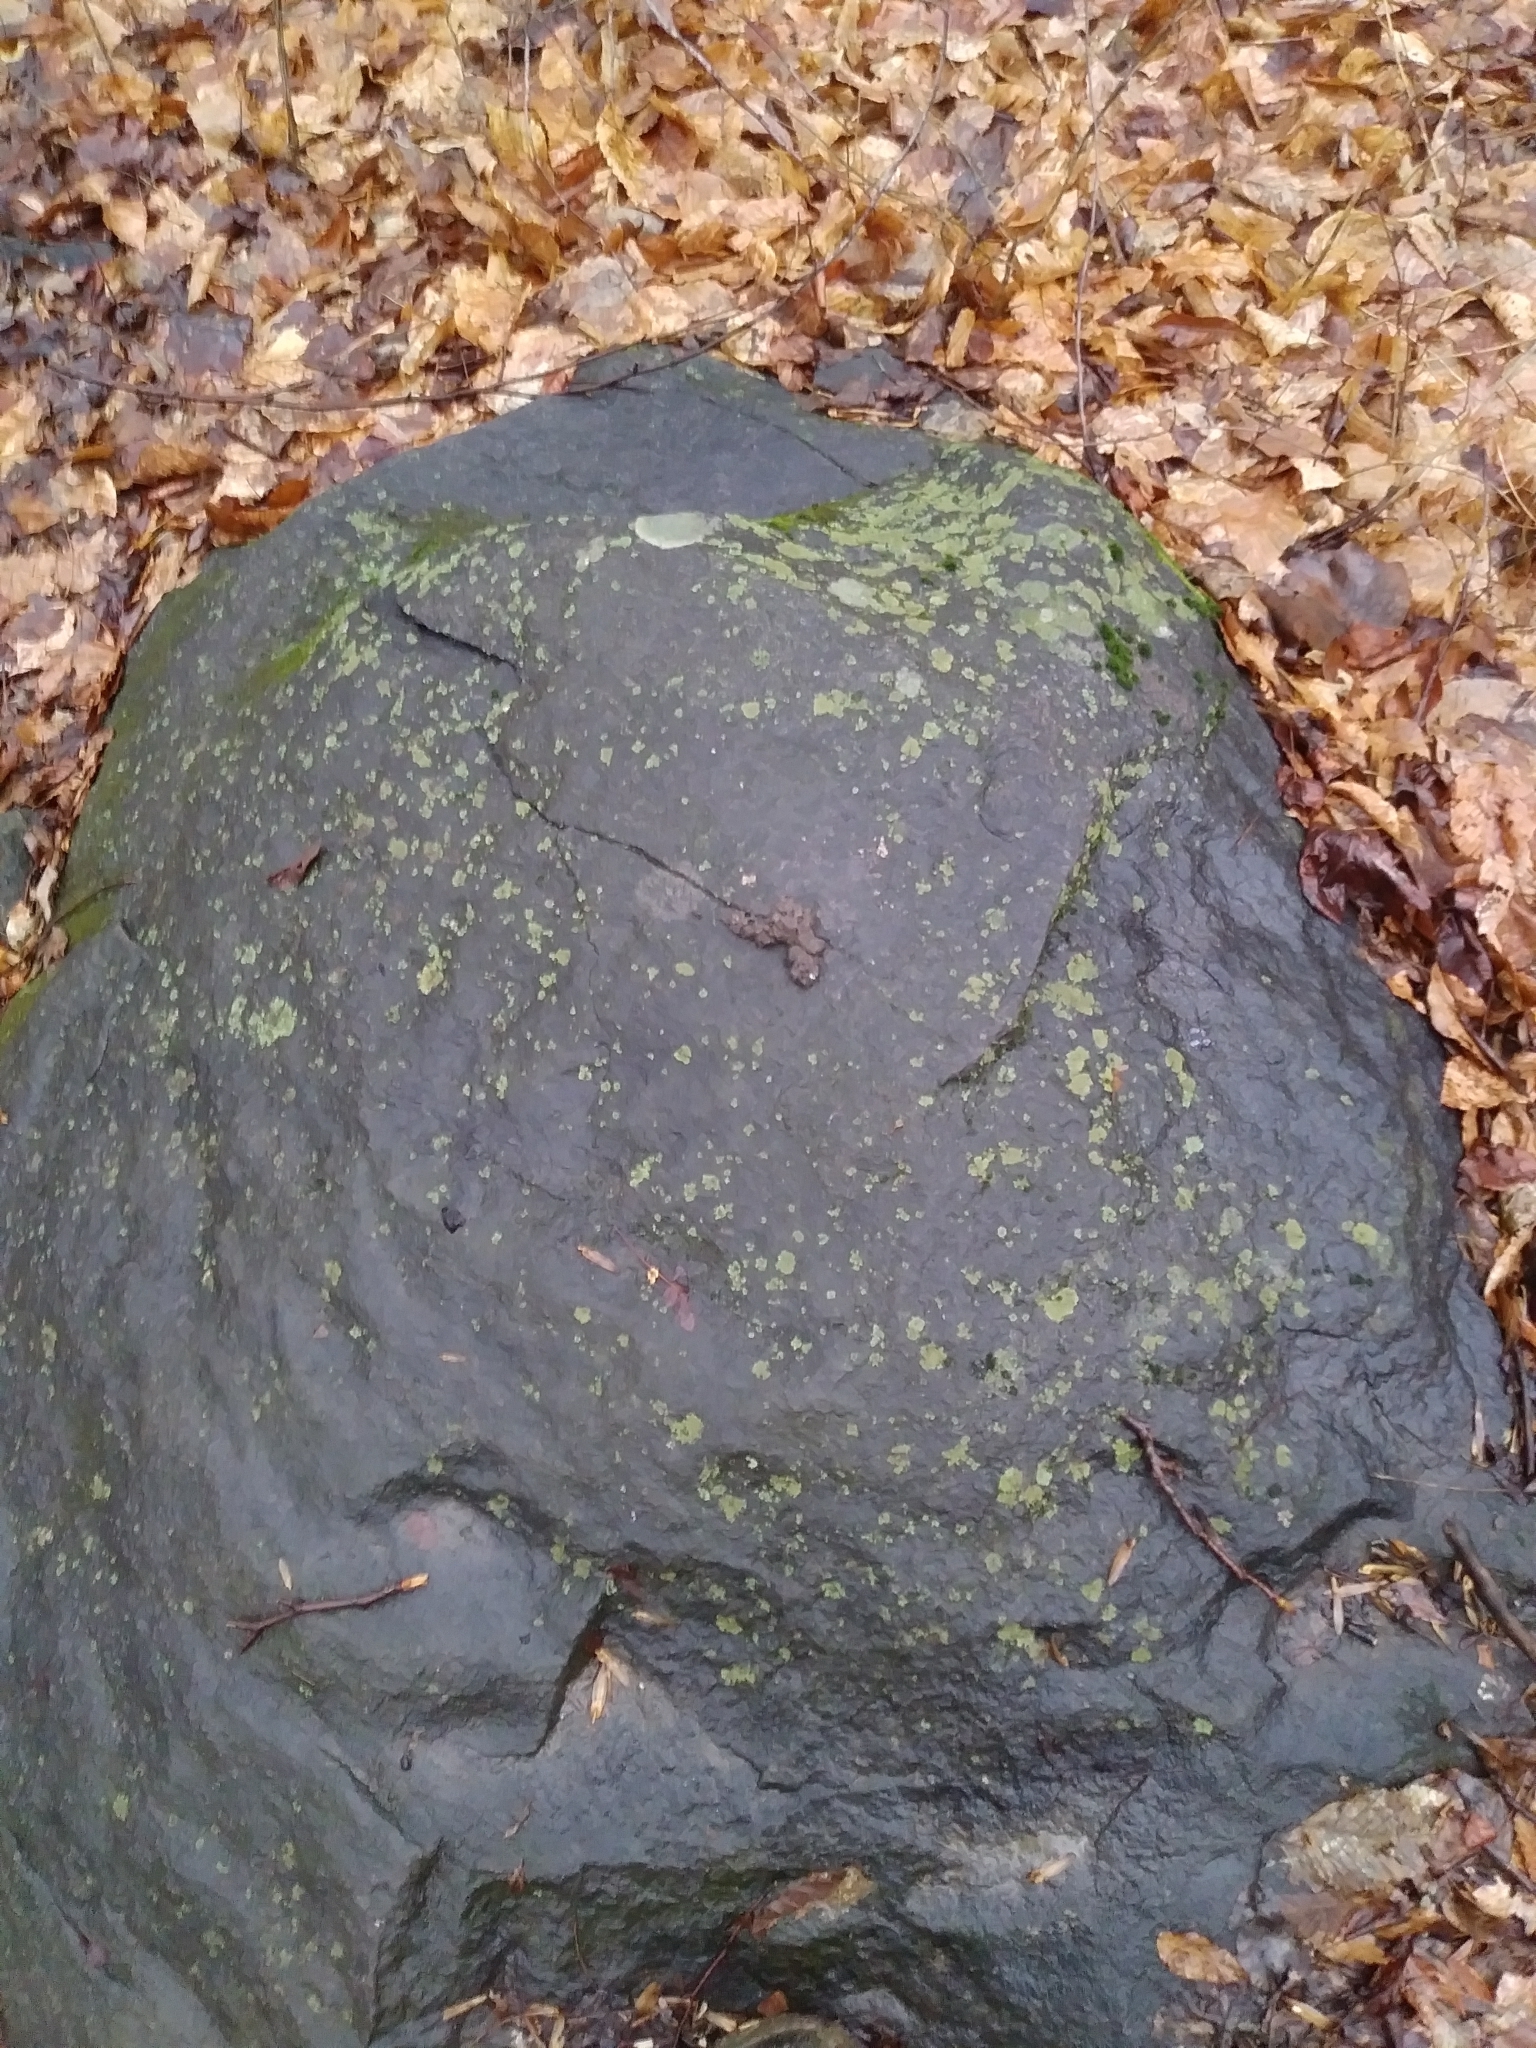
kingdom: Animalia
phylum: Chordata
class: Mammalia
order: Carnivora
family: Canidae
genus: Vulpes
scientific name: Vulpes vulpes
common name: Red fox
